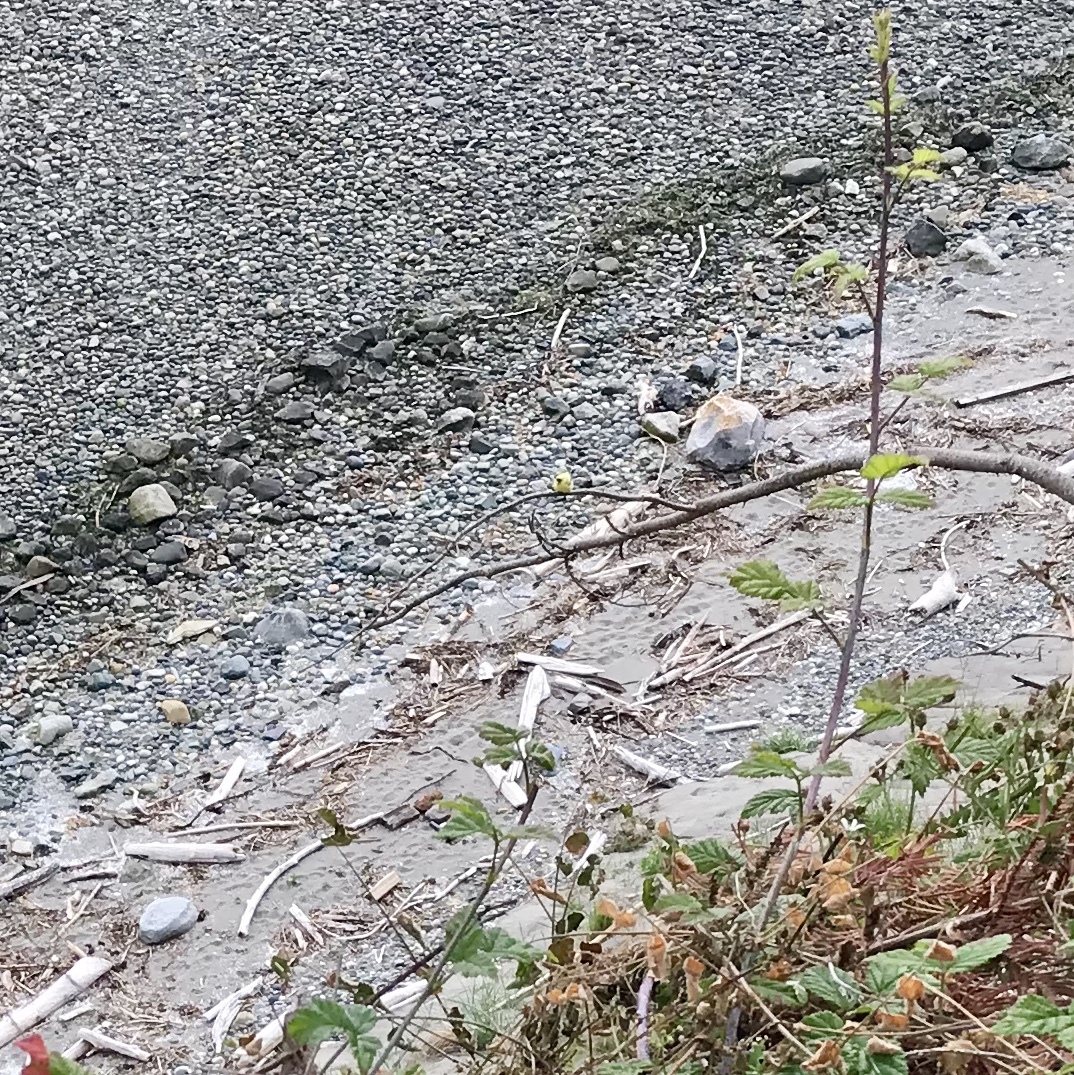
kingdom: Animalia
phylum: Chordata
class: Aves
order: Passeriformes
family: Fringillidae
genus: Spinus
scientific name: Spinus tristis
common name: American goldfinch
